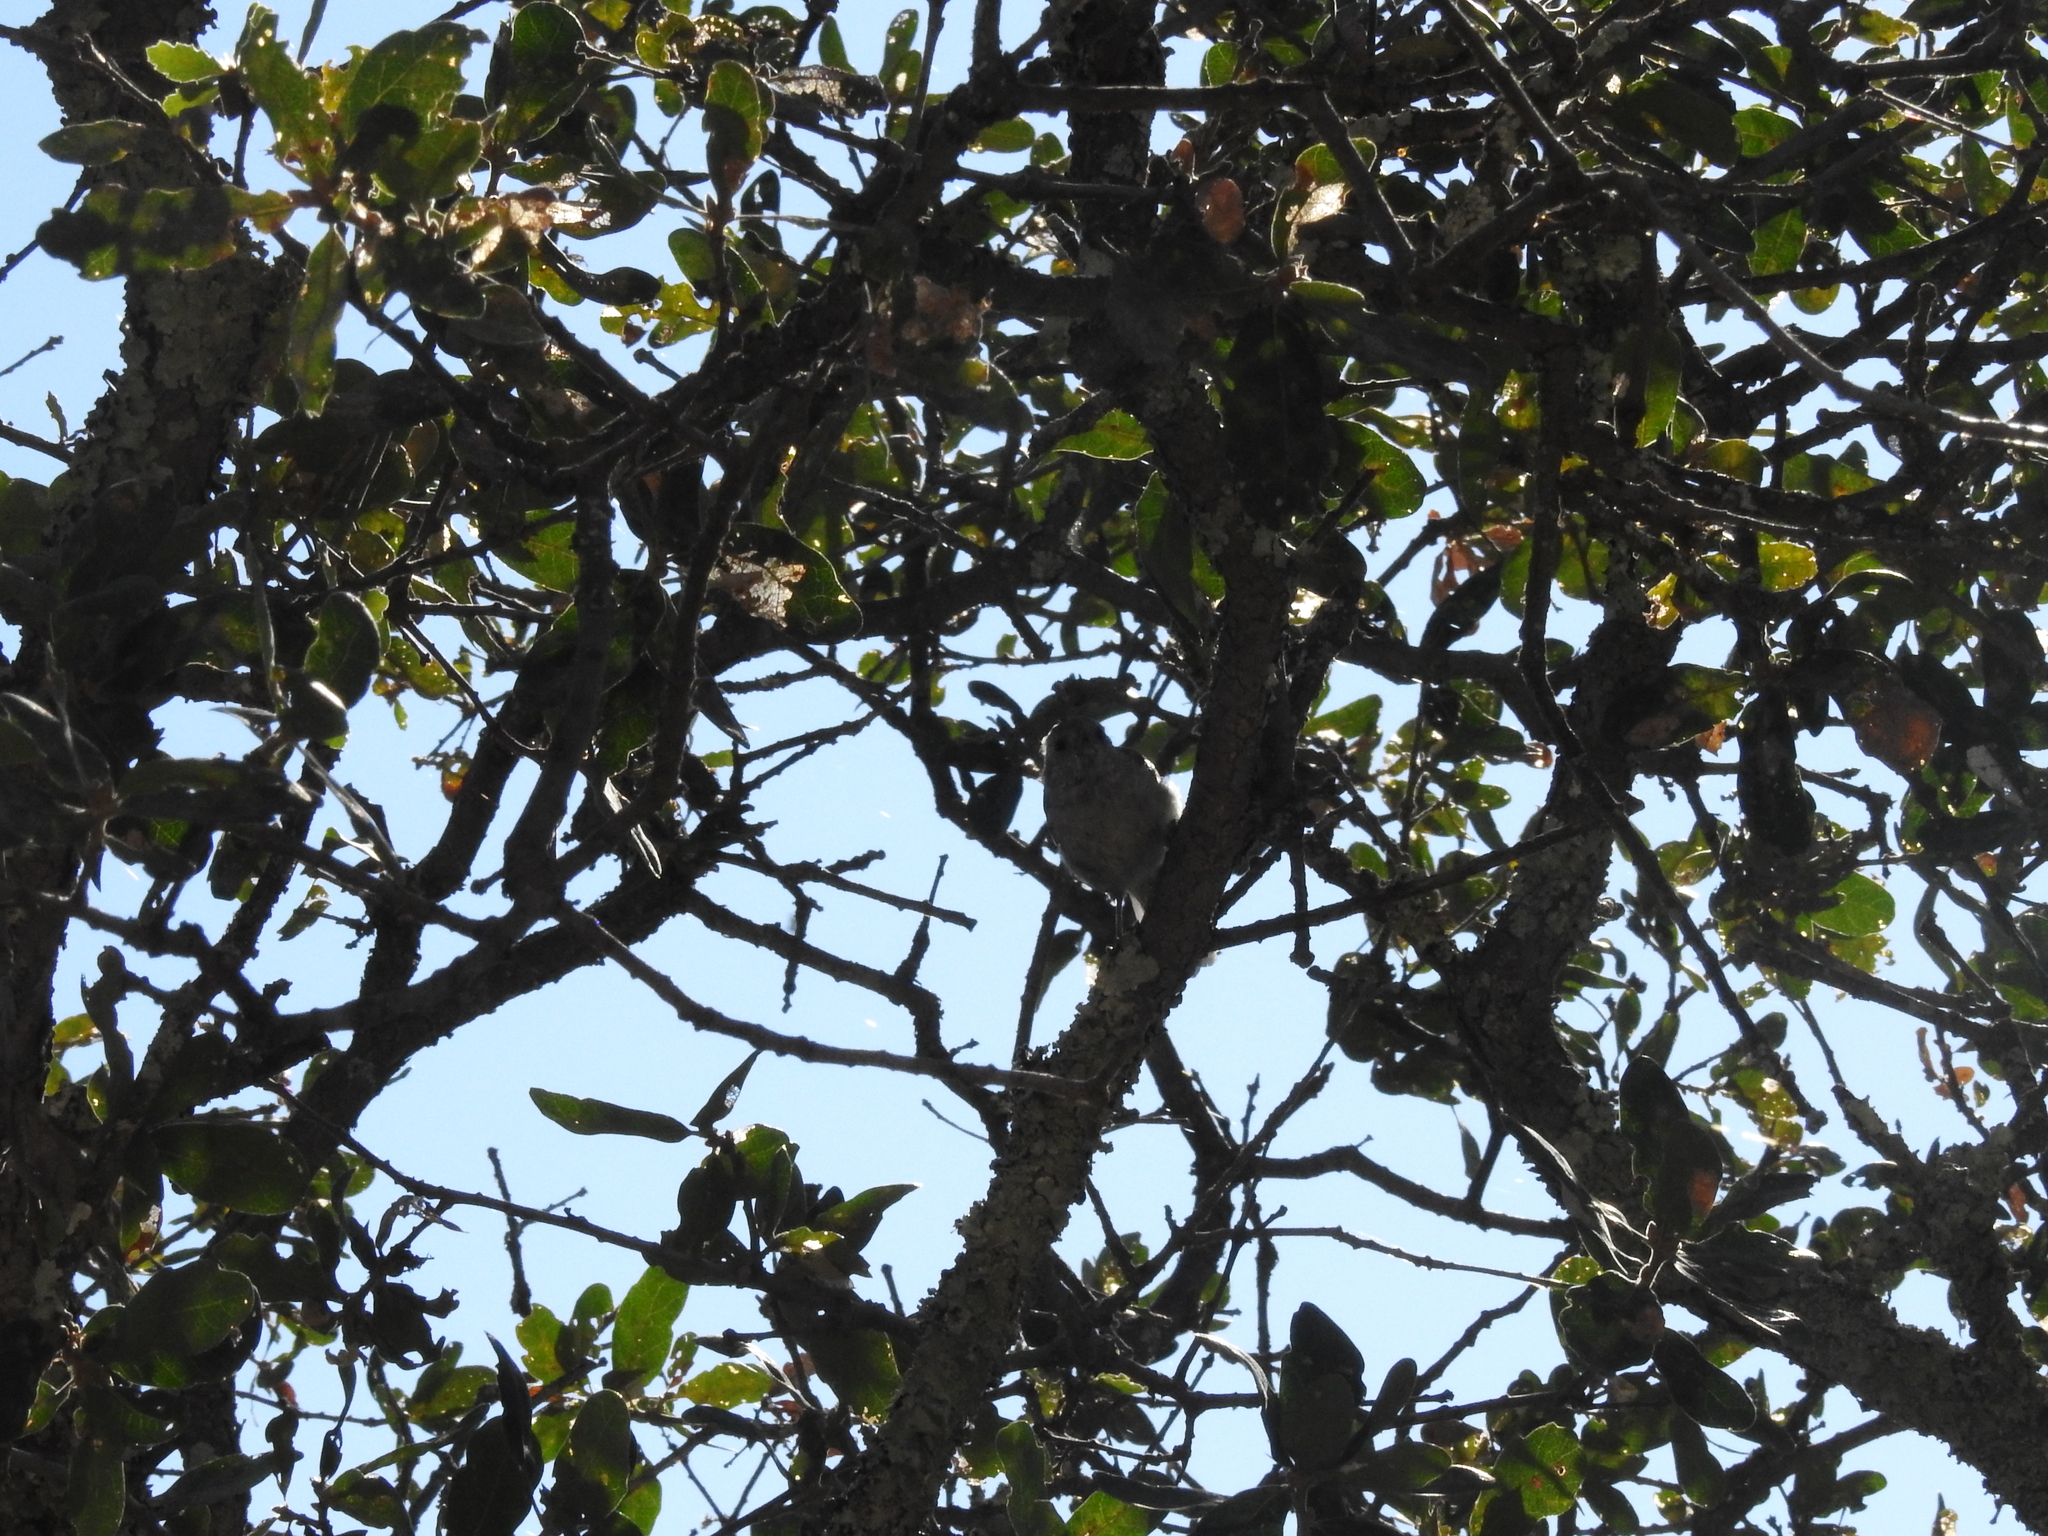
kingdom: Animalia
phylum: Chordata
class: Aves
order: Passeriformes
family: Paridae
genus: Baeolophus
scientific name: Baeolophus inornatus
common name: Oak titmouse
